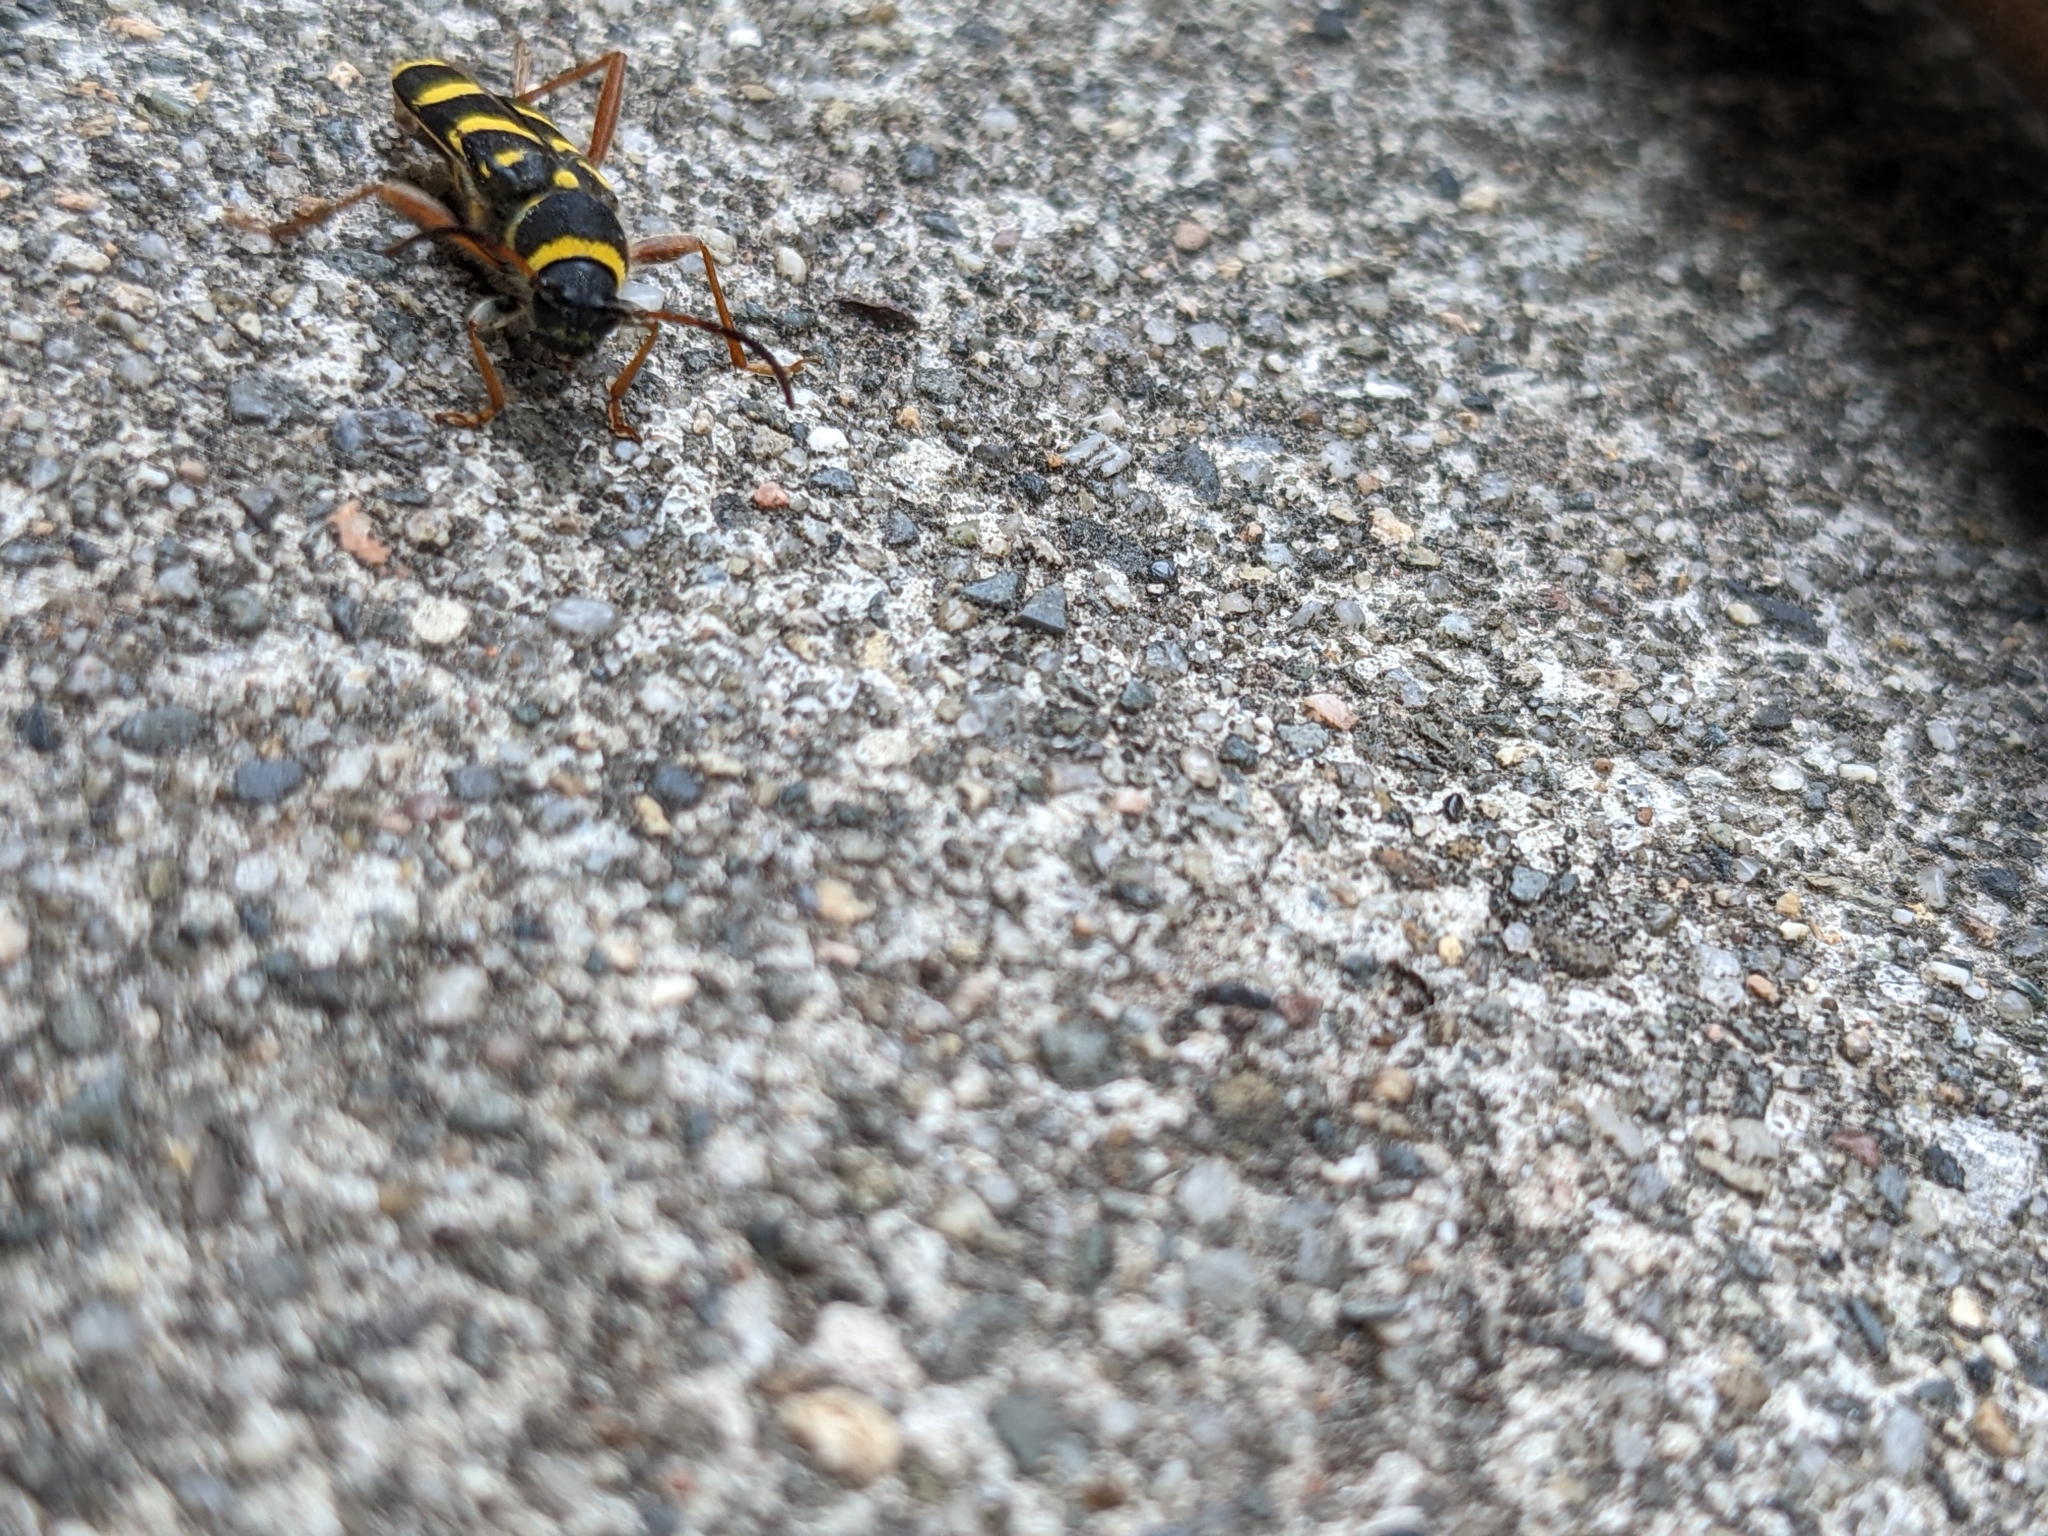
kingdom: Animalia
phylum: Arthropoda
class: Insecta
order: Coleoptera
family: Cerambycidae
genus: Clytus
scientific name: Clytus arietis
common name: Wasp beetle
